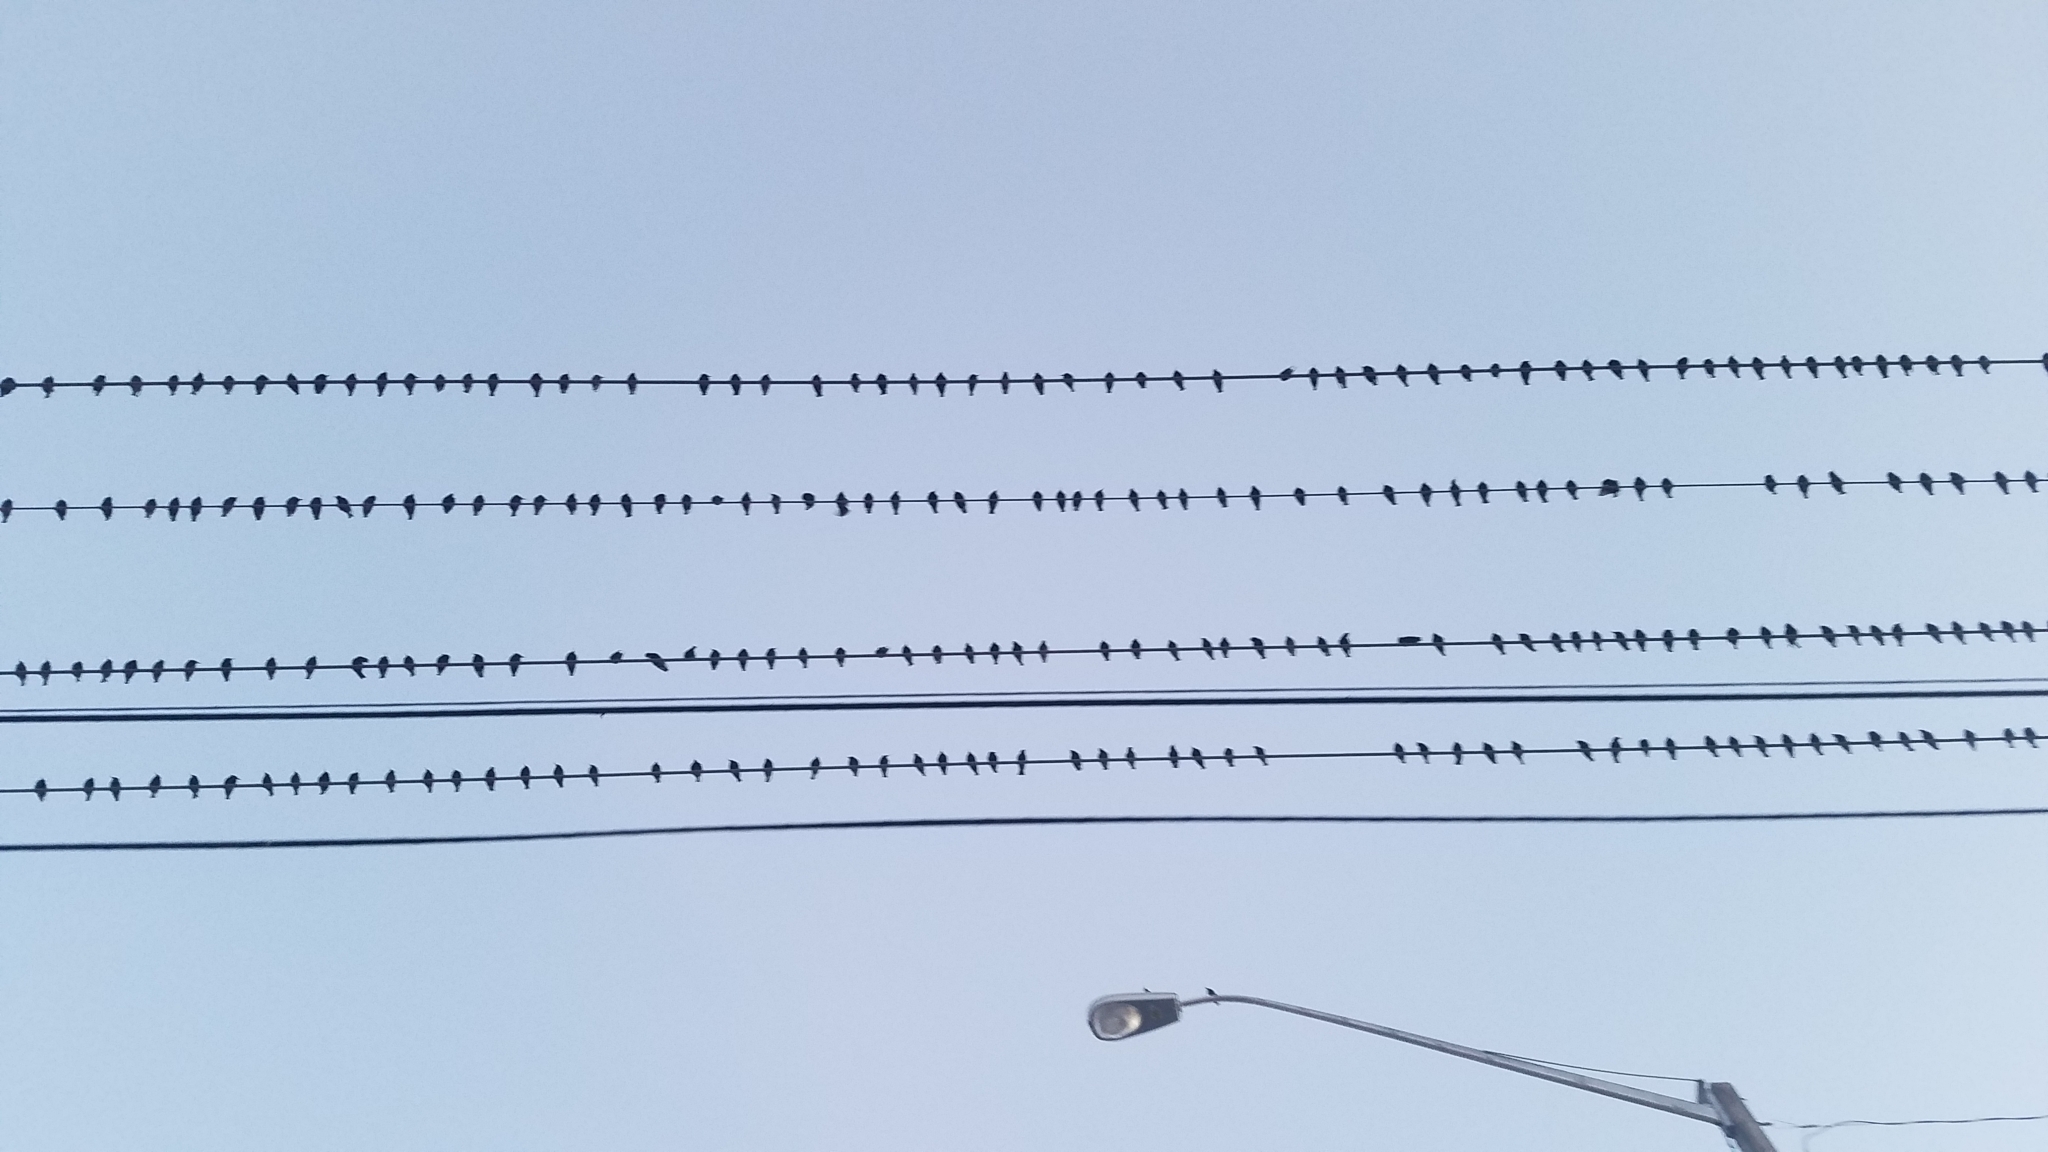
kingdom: Animalia
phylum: Chordata
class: Aves
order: Passeriformes
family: Sturnidae
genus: Sturnus
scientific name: Sturnus vulgaris
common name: Common starling
